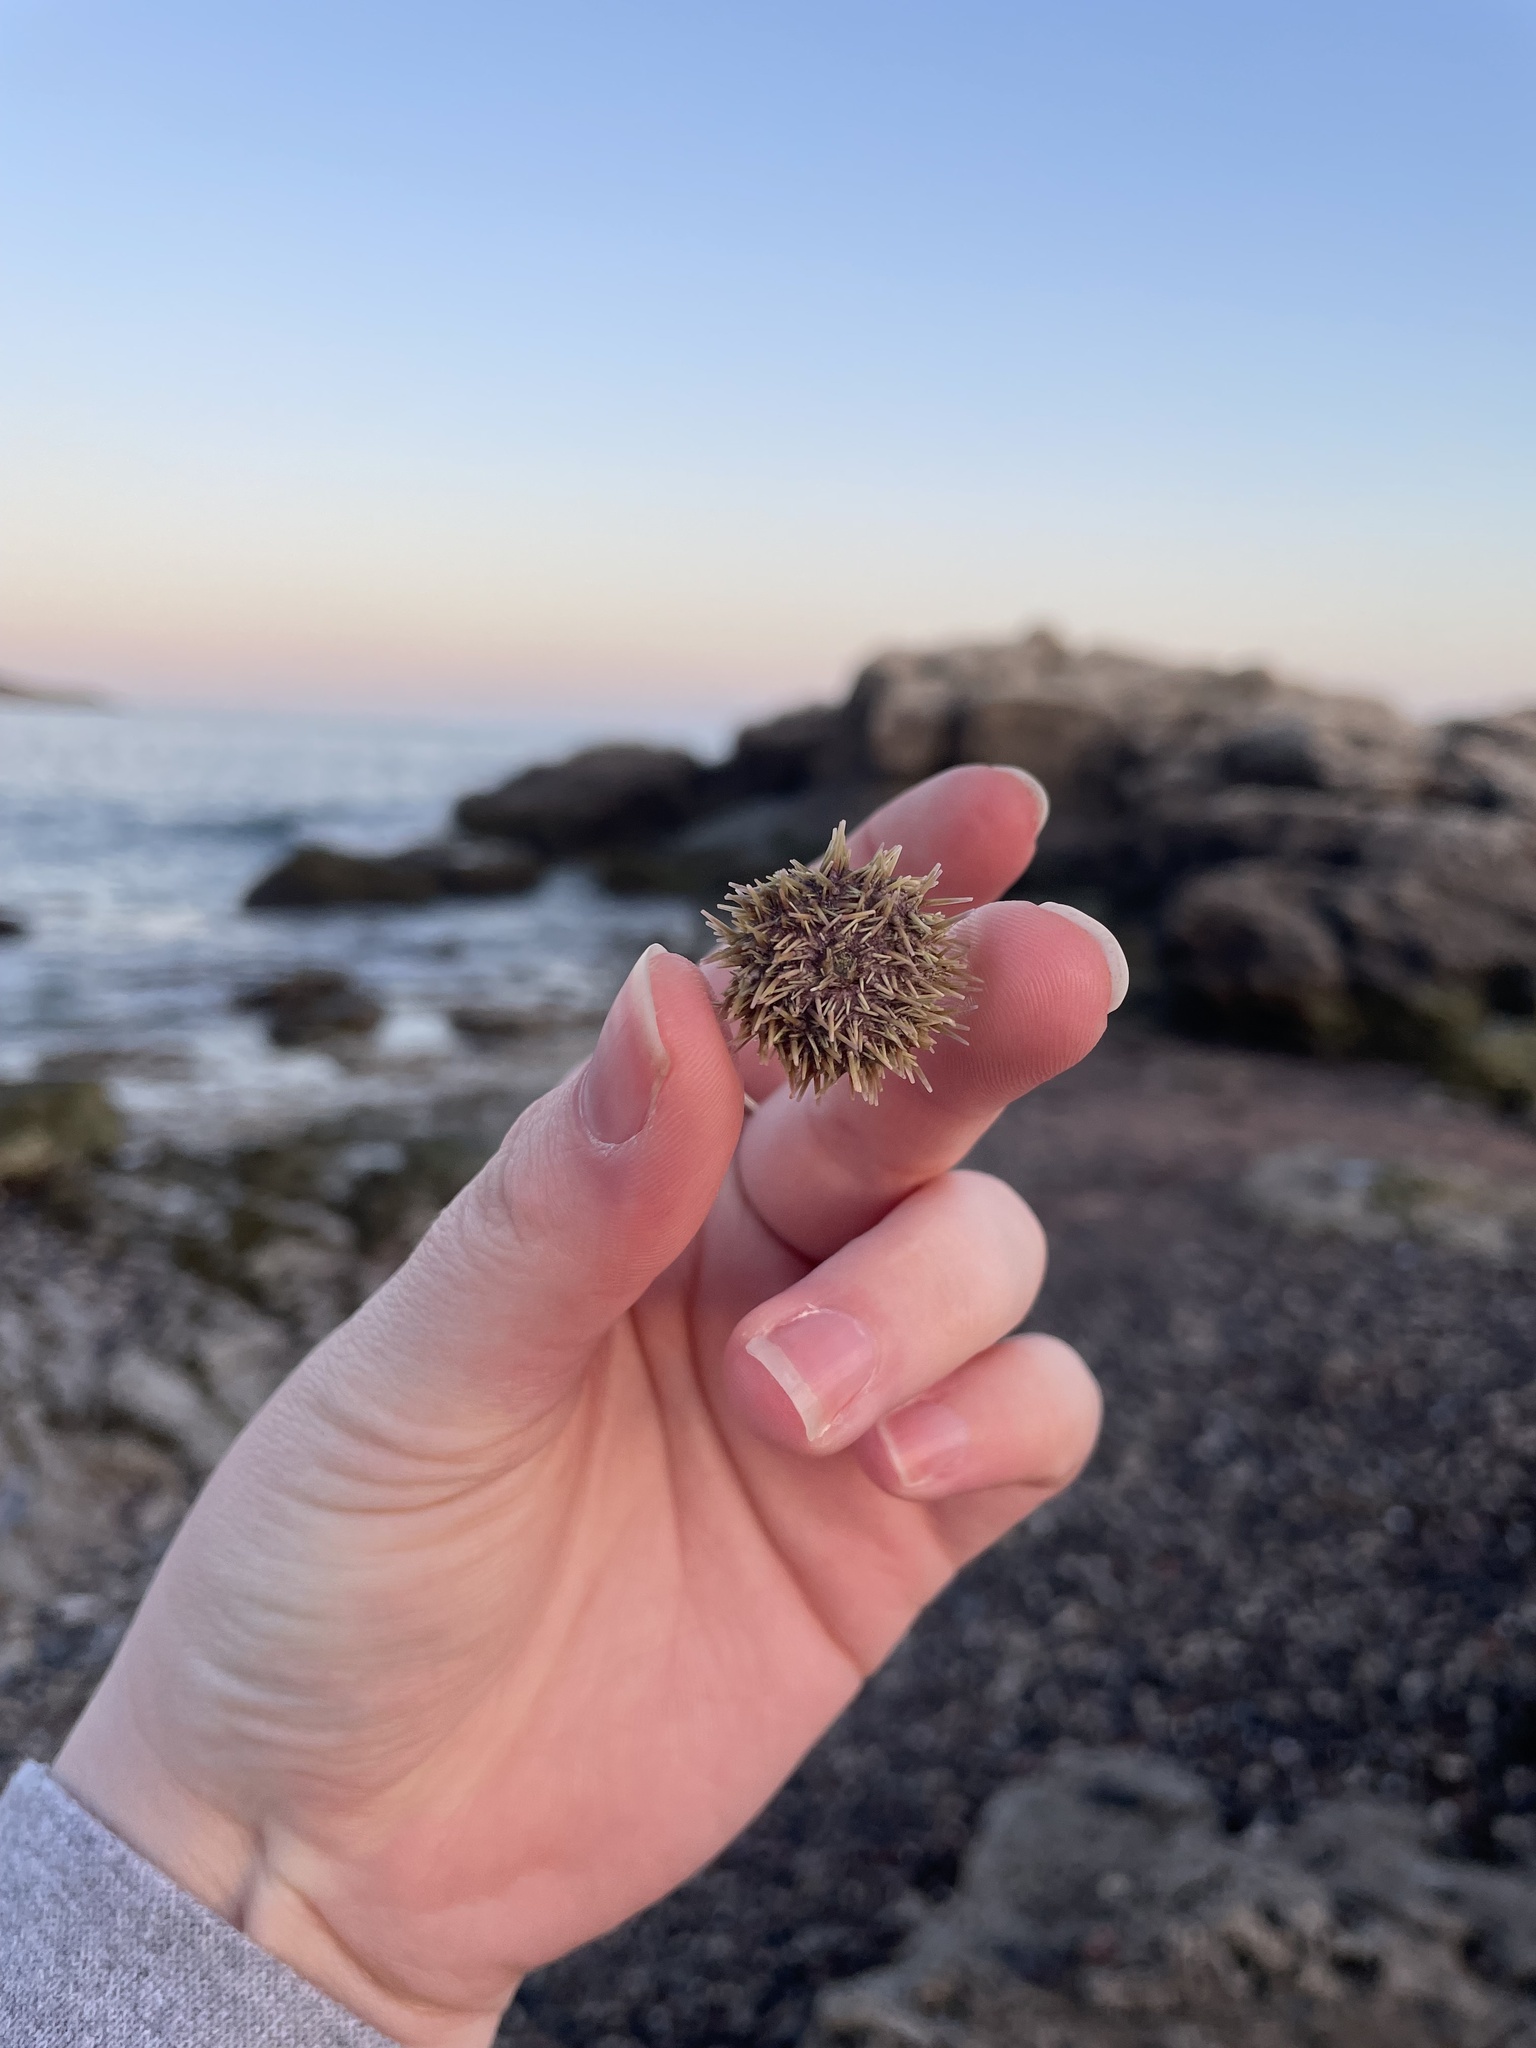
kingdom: Animalia
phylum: Echinodermata
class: Echinoidea
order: Camarodonta
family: Strongylocentrotidae
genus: Strongylocentrotus
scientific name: Strongylocentrotus droebachiensis
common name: Northern sea urchin
